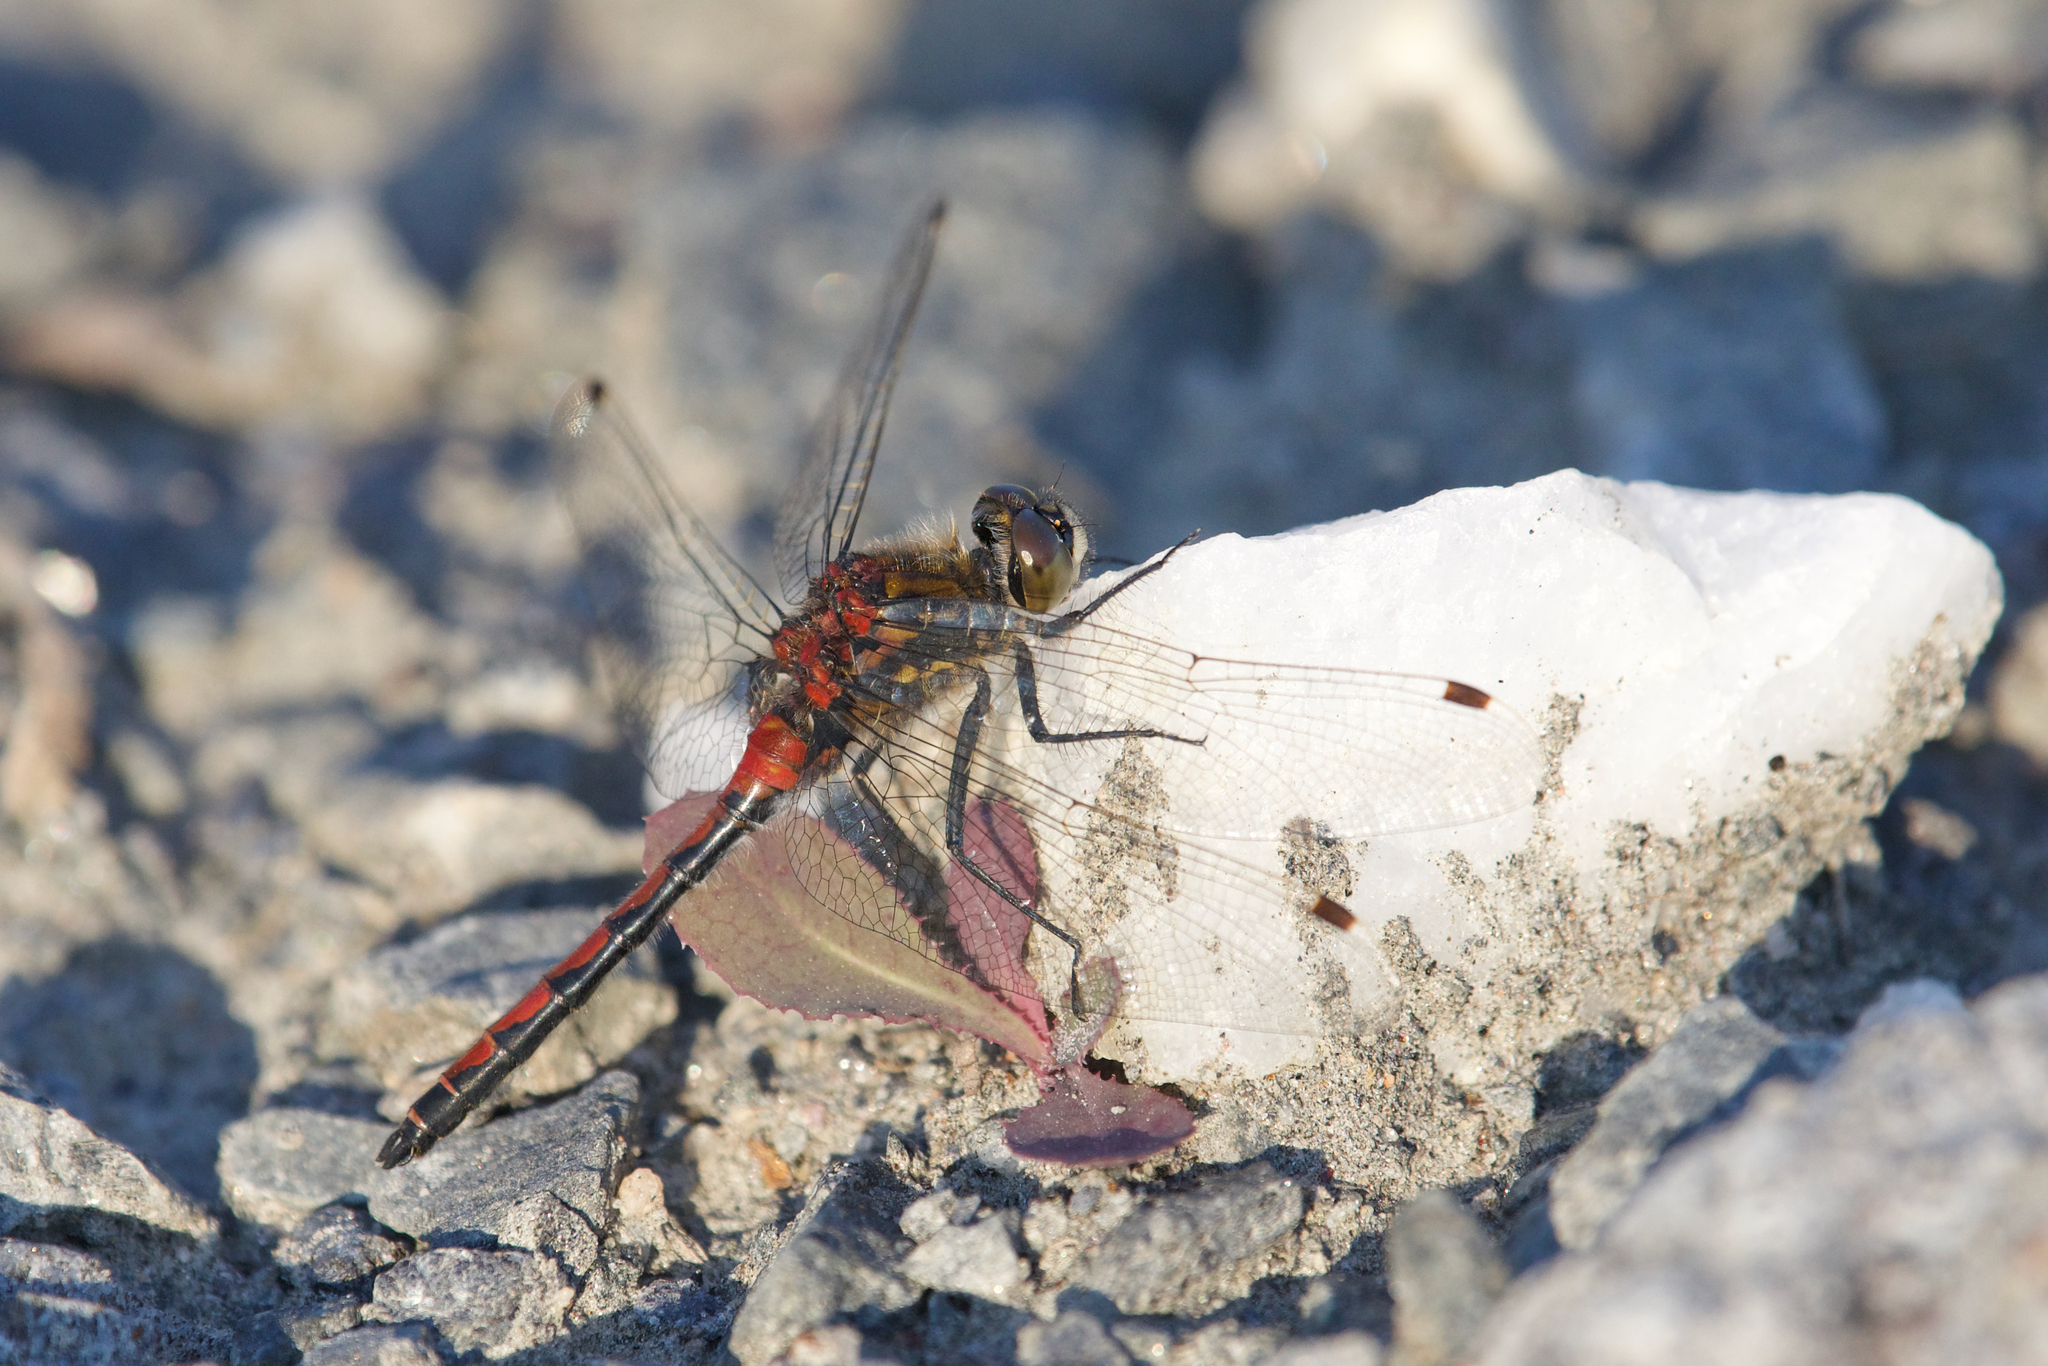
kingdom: Animalia
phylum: Arthropoda
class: Insecta
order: Odonata
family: Libellulidae
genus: Leucorrhinia
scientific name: Leucorrhinia borealis
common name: Boreal whiteface
